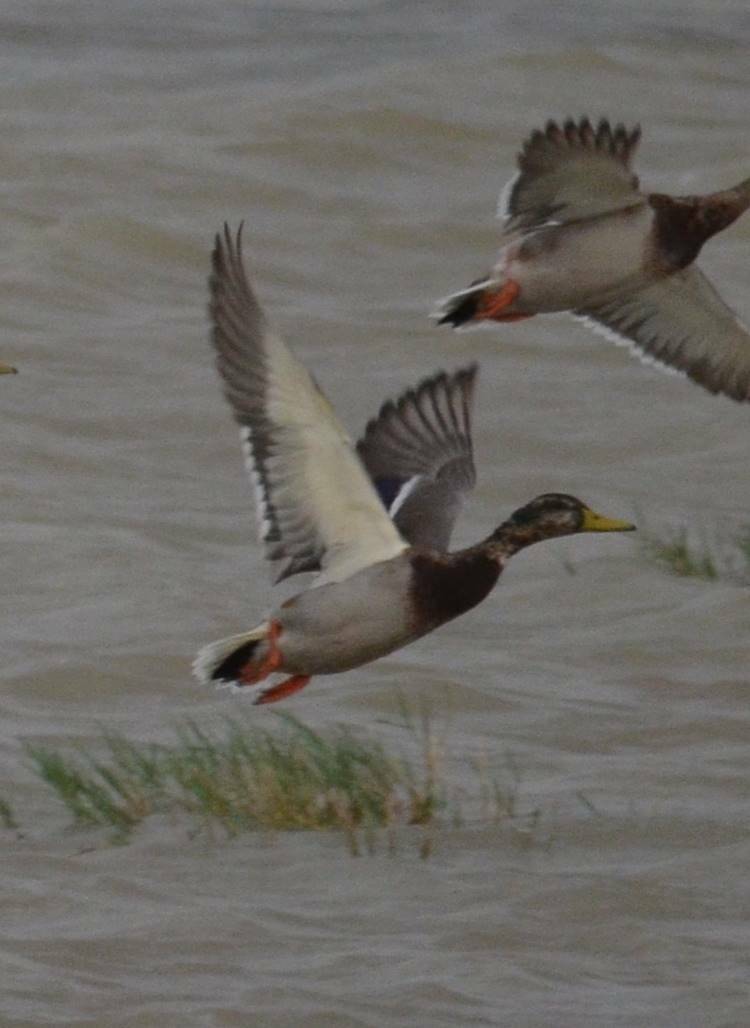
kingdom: Animalia
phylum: Chordata
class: Aves
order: Anseriformes
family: Anatidae
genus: Anas
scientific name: Anas platyrhynchos
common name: Mallard
